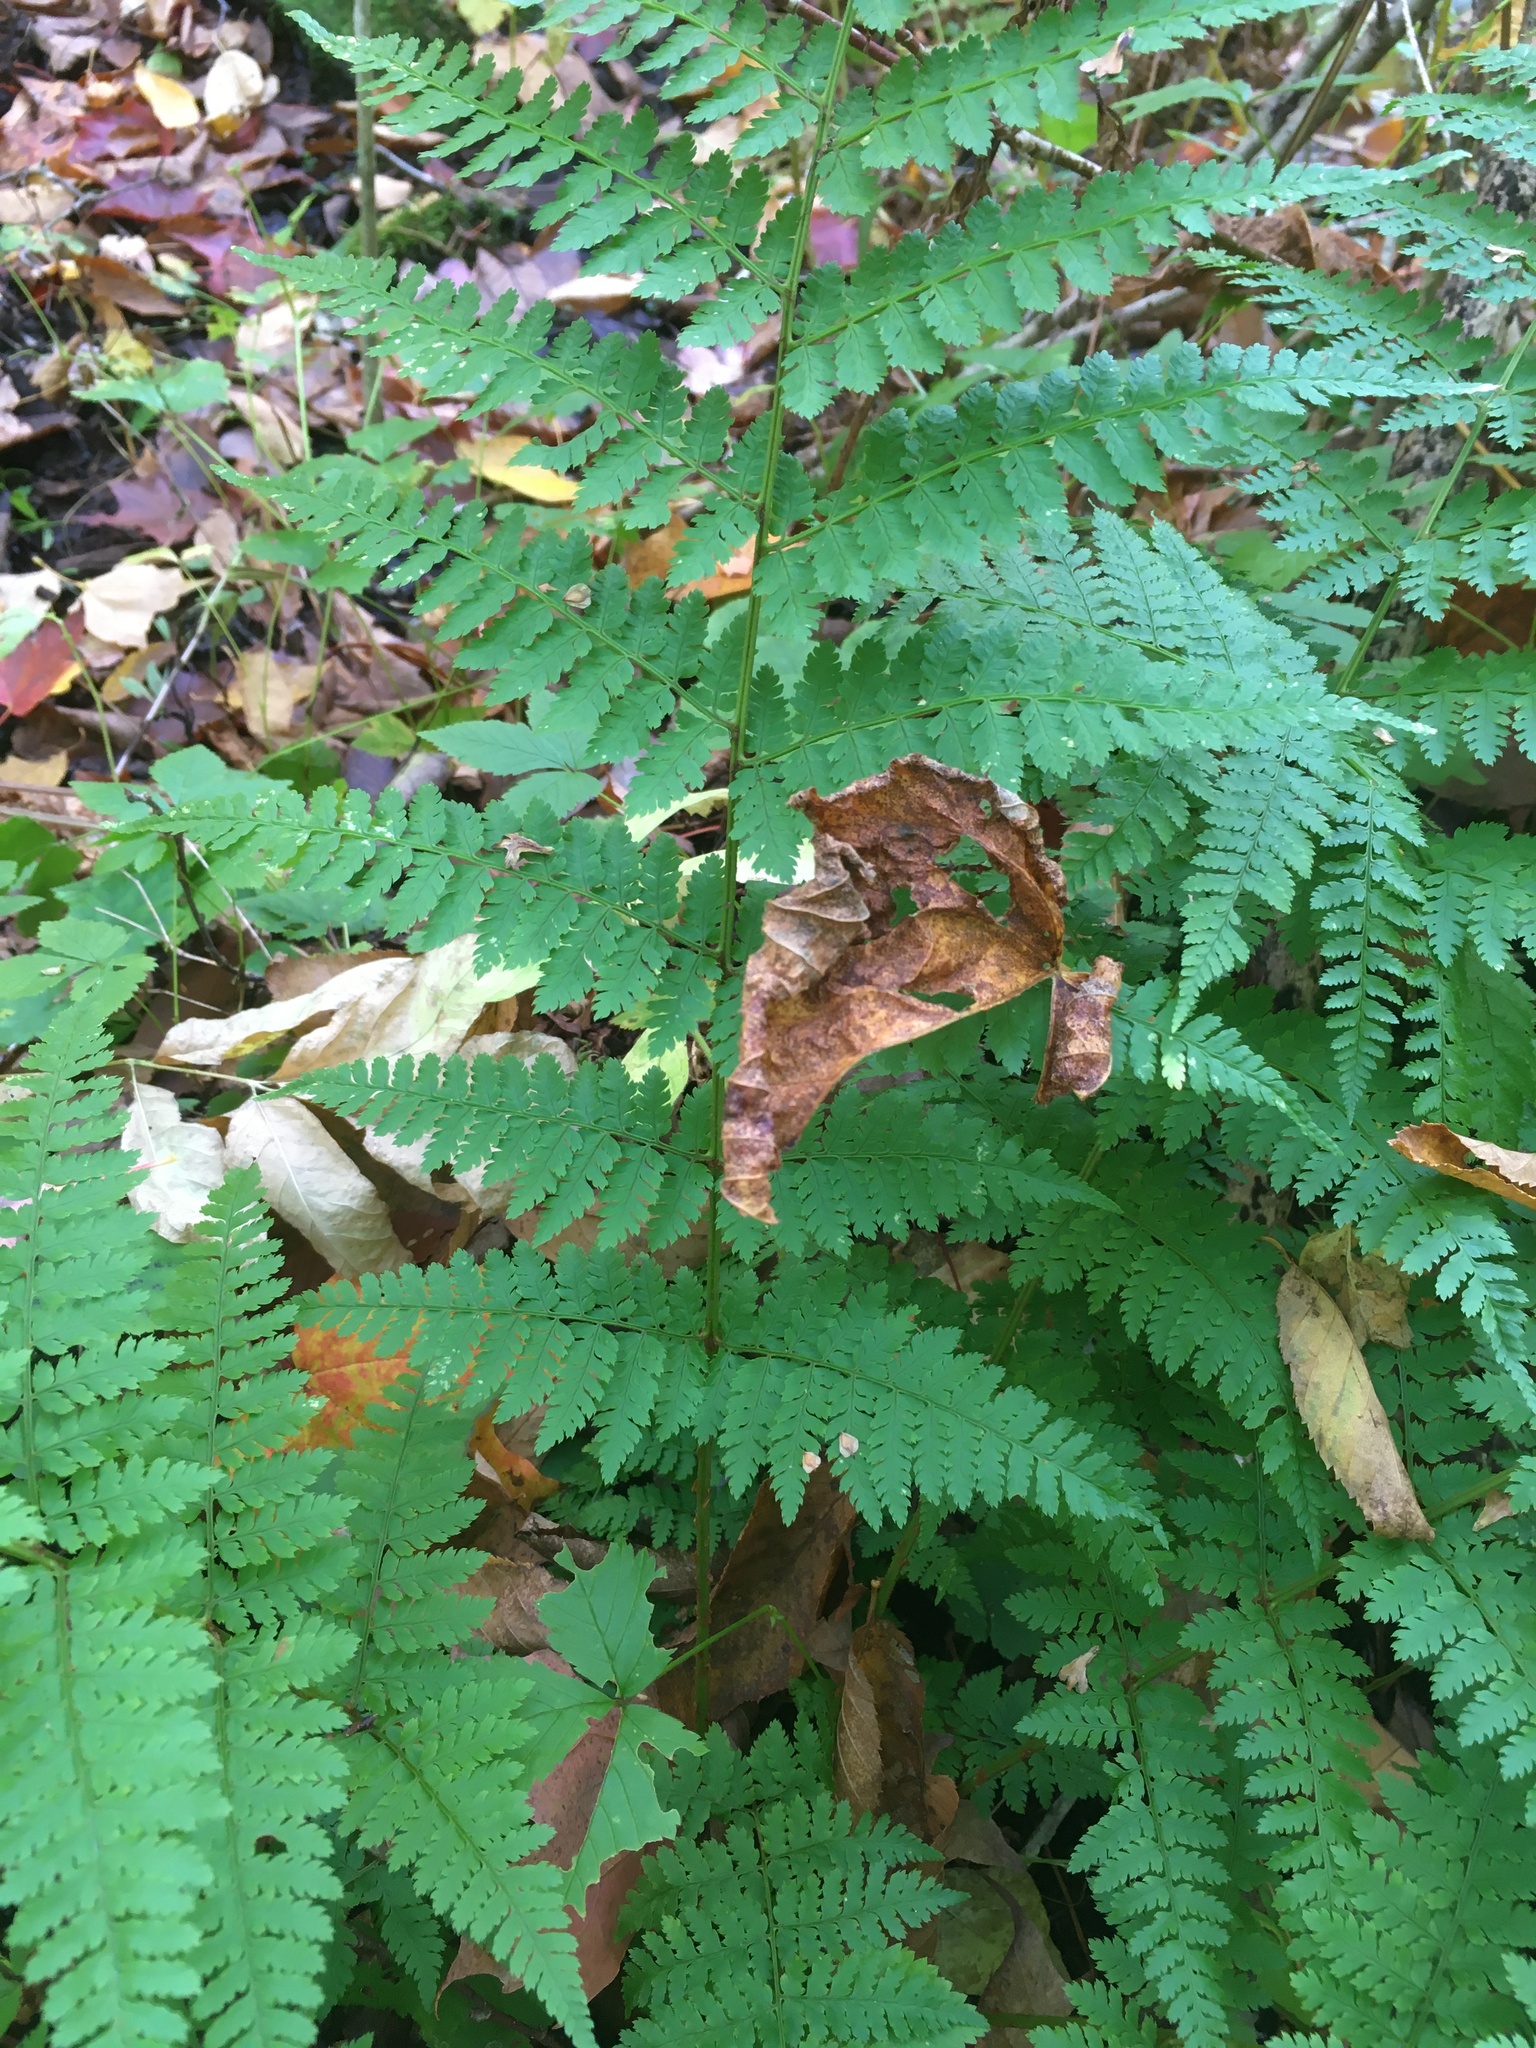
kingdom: Plantae
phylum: Tracheophyta
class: Polypodiopsida
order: Polypodiales
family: Dryopteridaceae
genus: Dryopteris
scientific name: Dryopteris intermedia
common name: Evergreen wood fern
